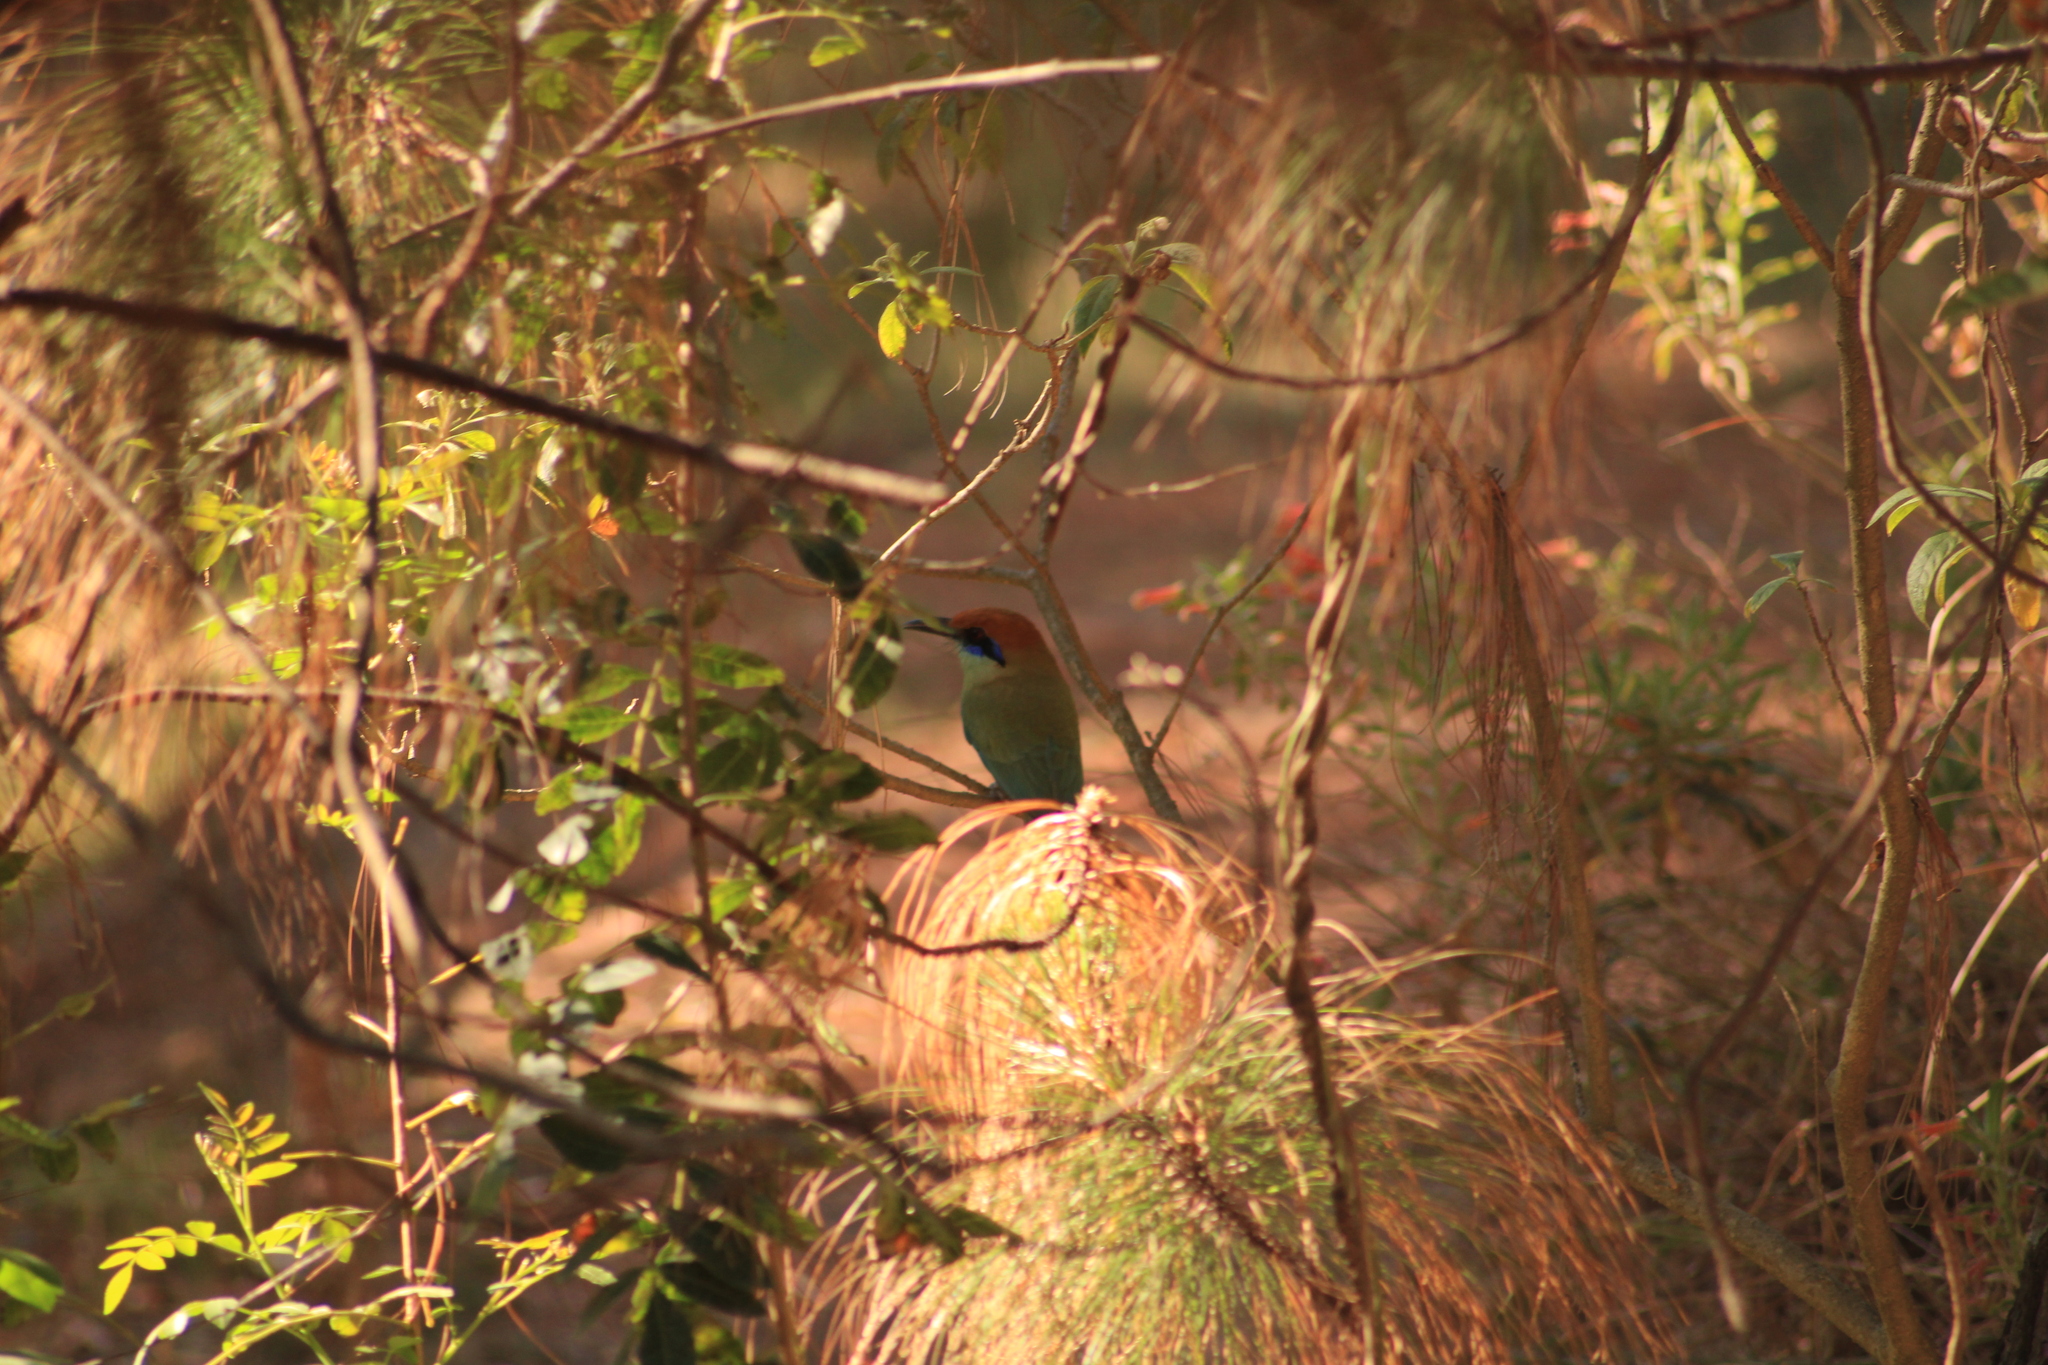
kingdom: Animalia
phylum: Chordata
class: Aves
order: Coraciiformes
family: Momotidae
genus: Momotus
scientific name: Momotus mexicanus
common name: Russet-crowned motmot
